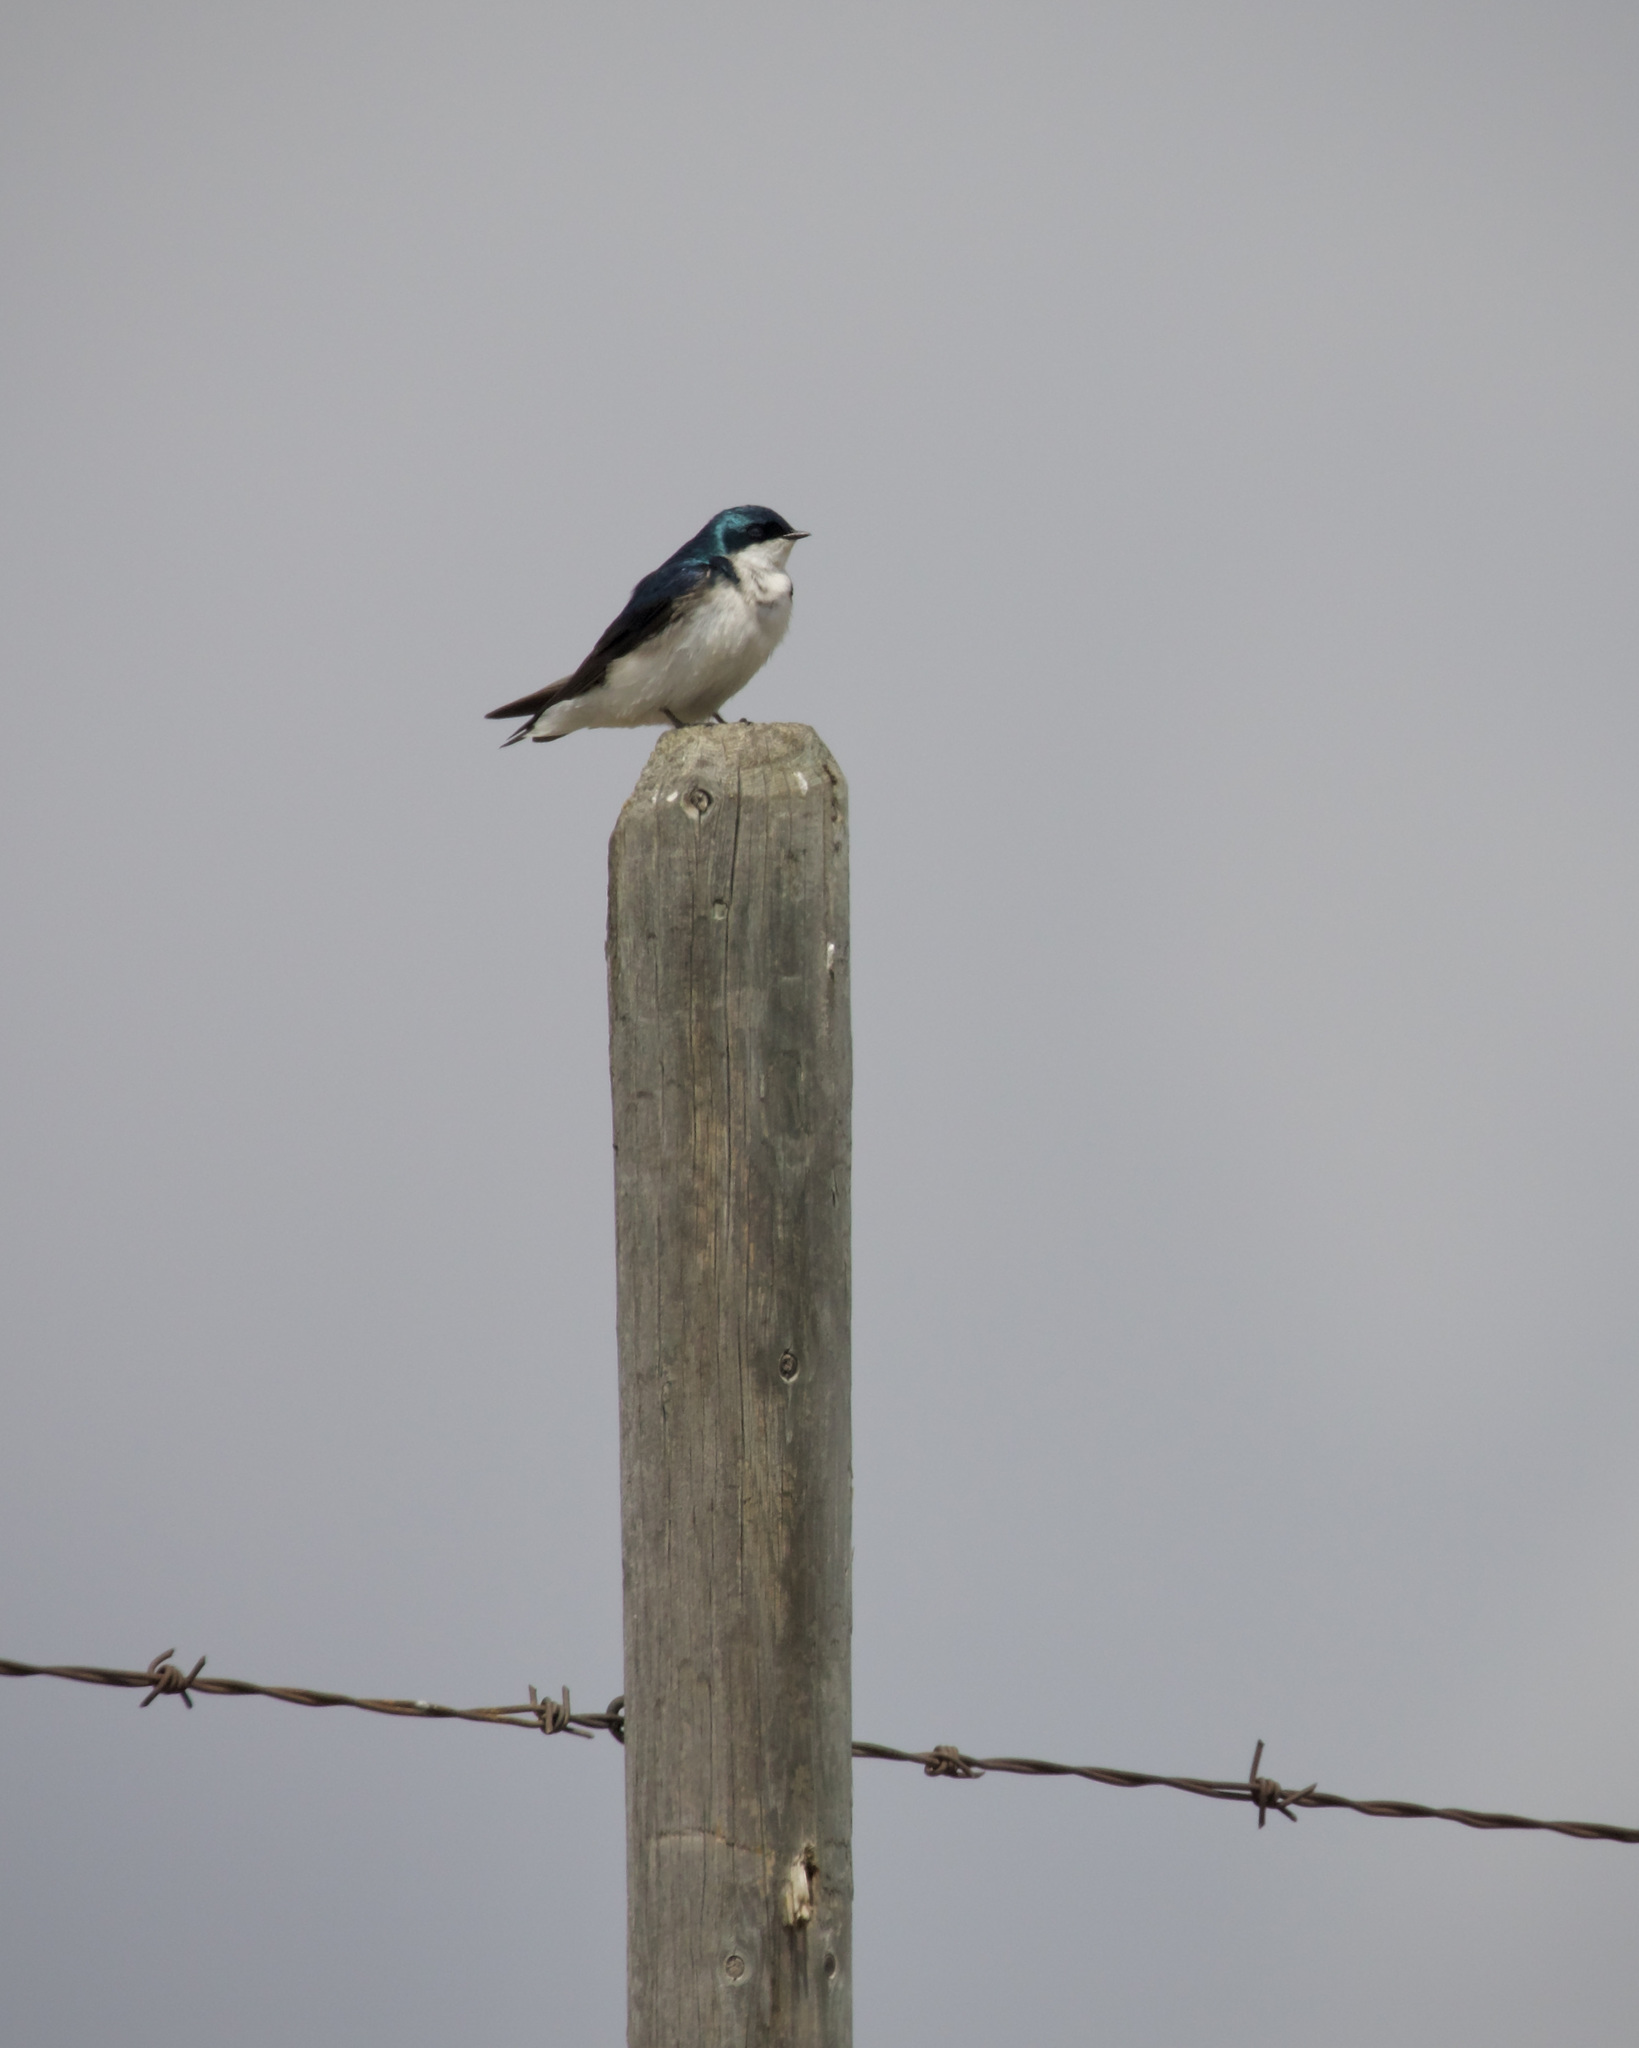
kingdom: Animalia
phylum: Chordata
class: Aves
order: Passeriformes
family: Hirundinidae
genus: Tachycineta
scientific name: Tachycineta bicolor
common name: Tree swallow
